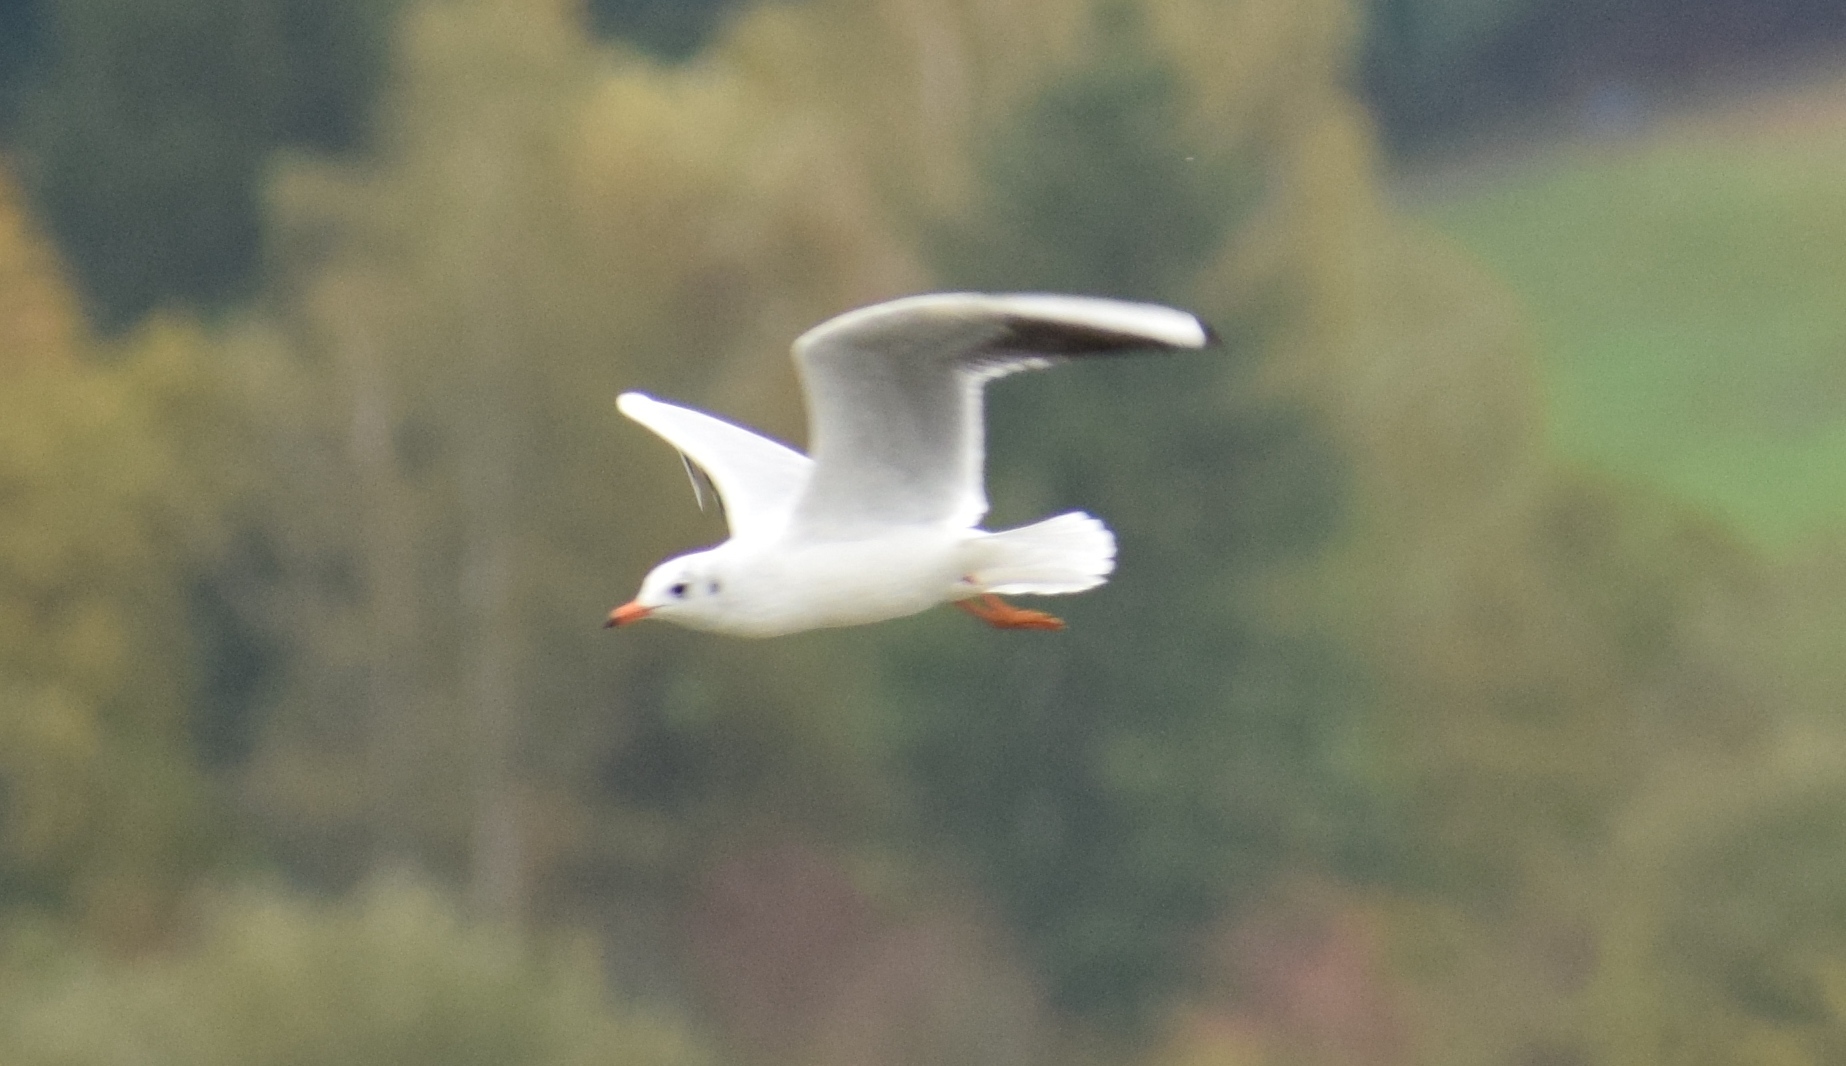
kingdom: Animalia
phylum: Chordata
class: Aves
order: Charadriiformes
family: Laridae
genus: Chroicocephalus
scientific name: Chroicocephalus ridibundus
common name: Black-headed gull
